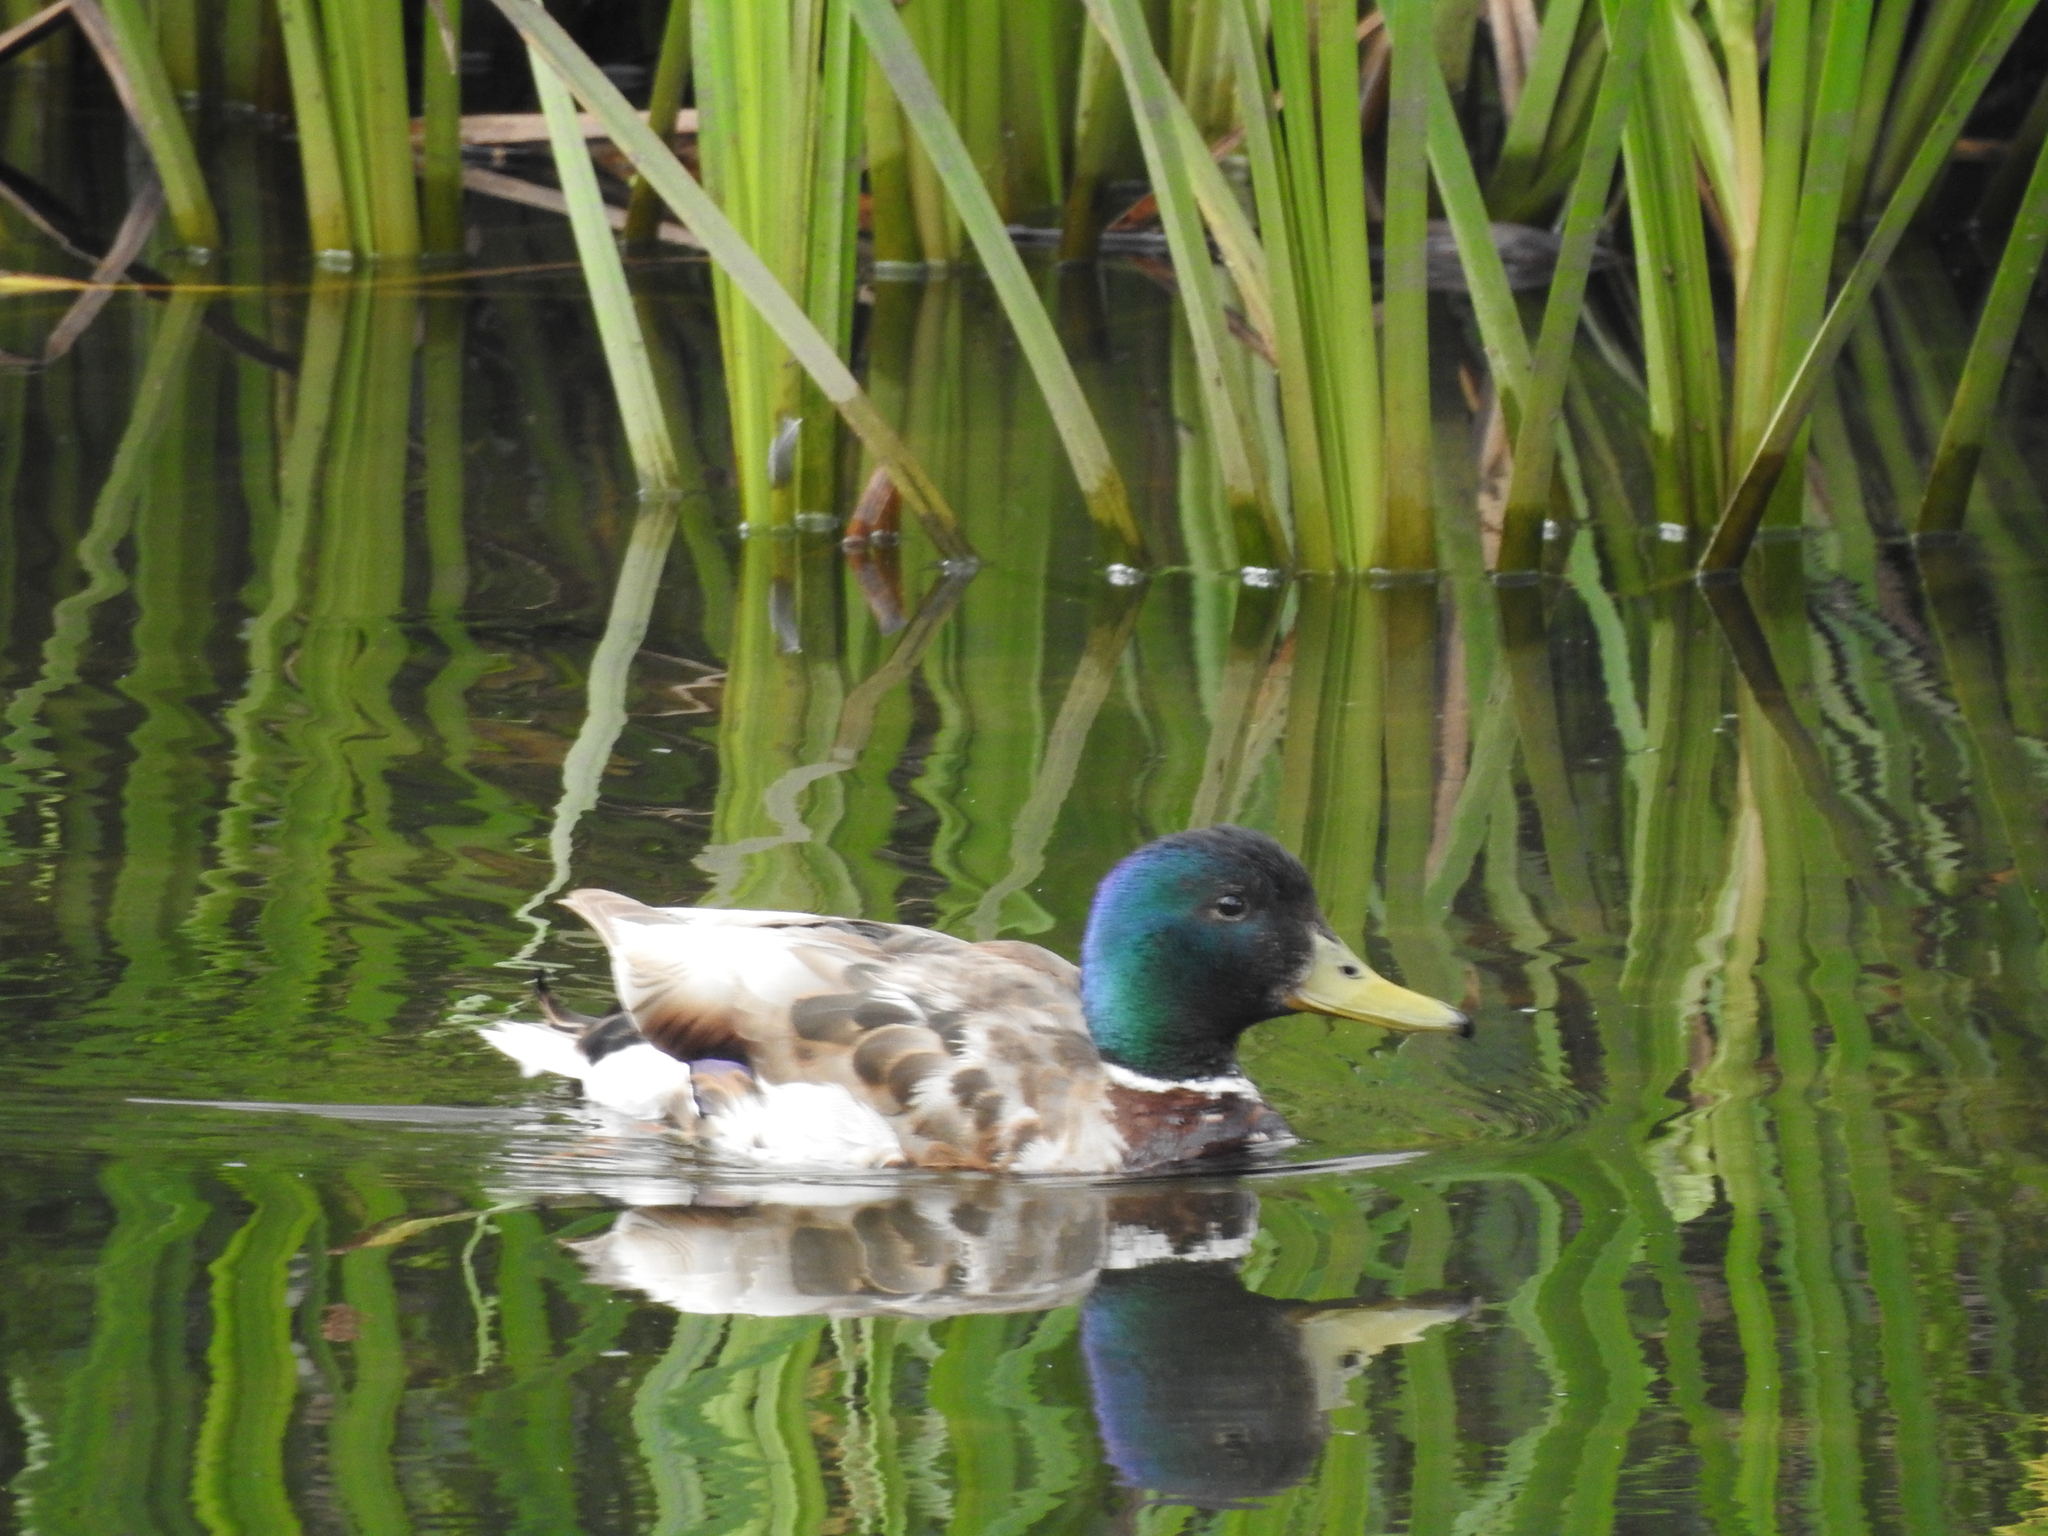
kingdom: Animalia
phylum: Chordata
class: Aves
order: Anseriformes
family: Anatidae
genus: Anas
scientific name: Anas platyrhynchos
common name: Mallard
